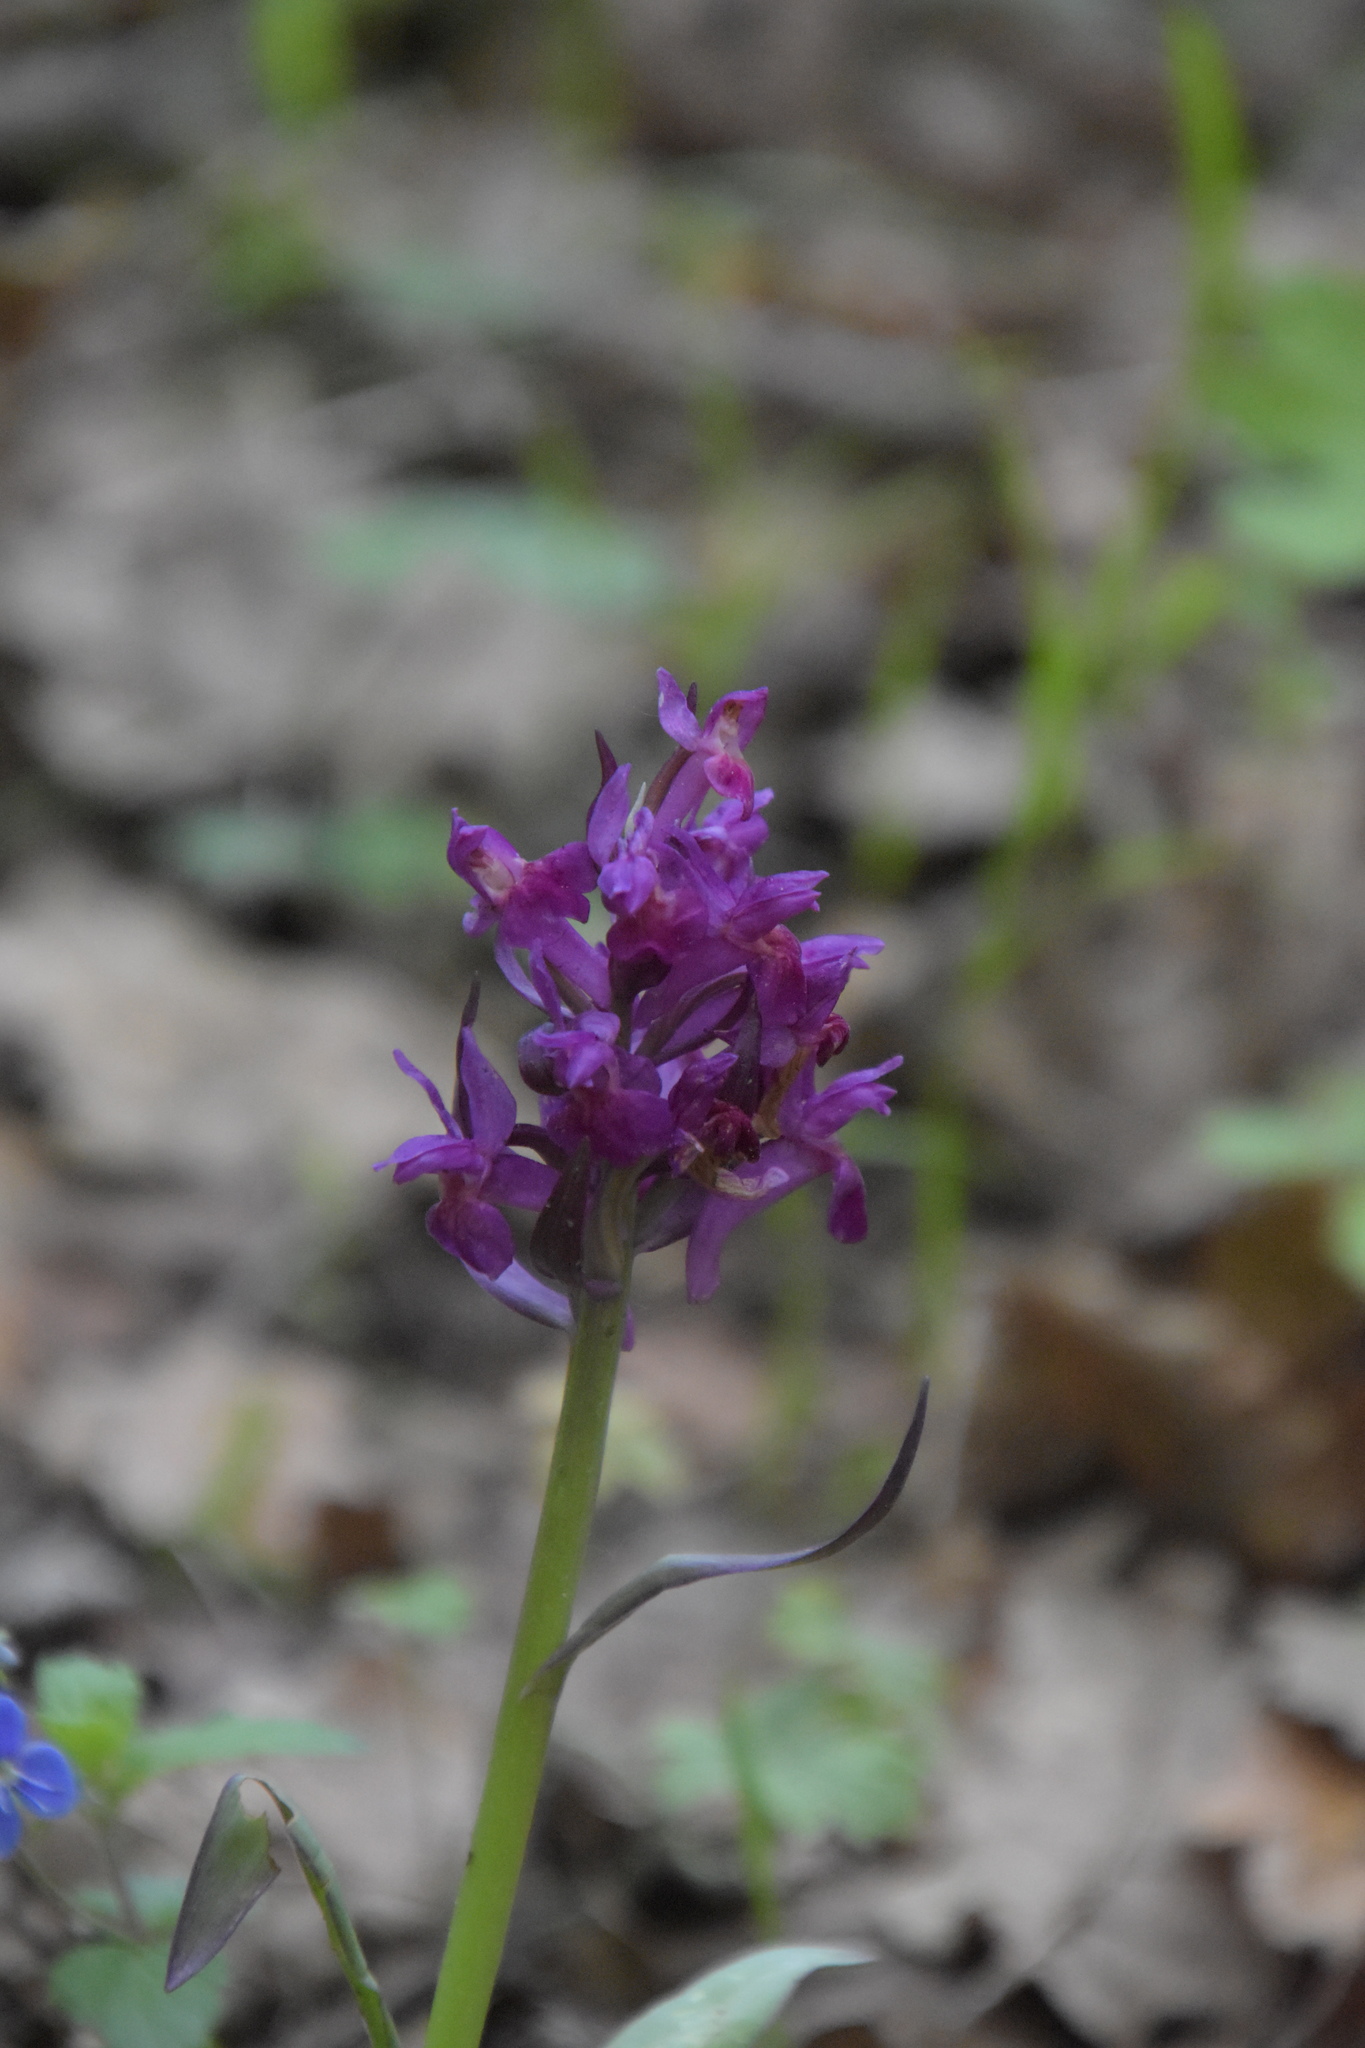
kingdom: Plantae
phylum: Tracheophyta
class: Liliopsida
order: Asparagales
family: Orchidaceae
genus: Dactylorhiza
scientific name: Dactylorhiza sambucina
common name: Elder-flowered orchid
